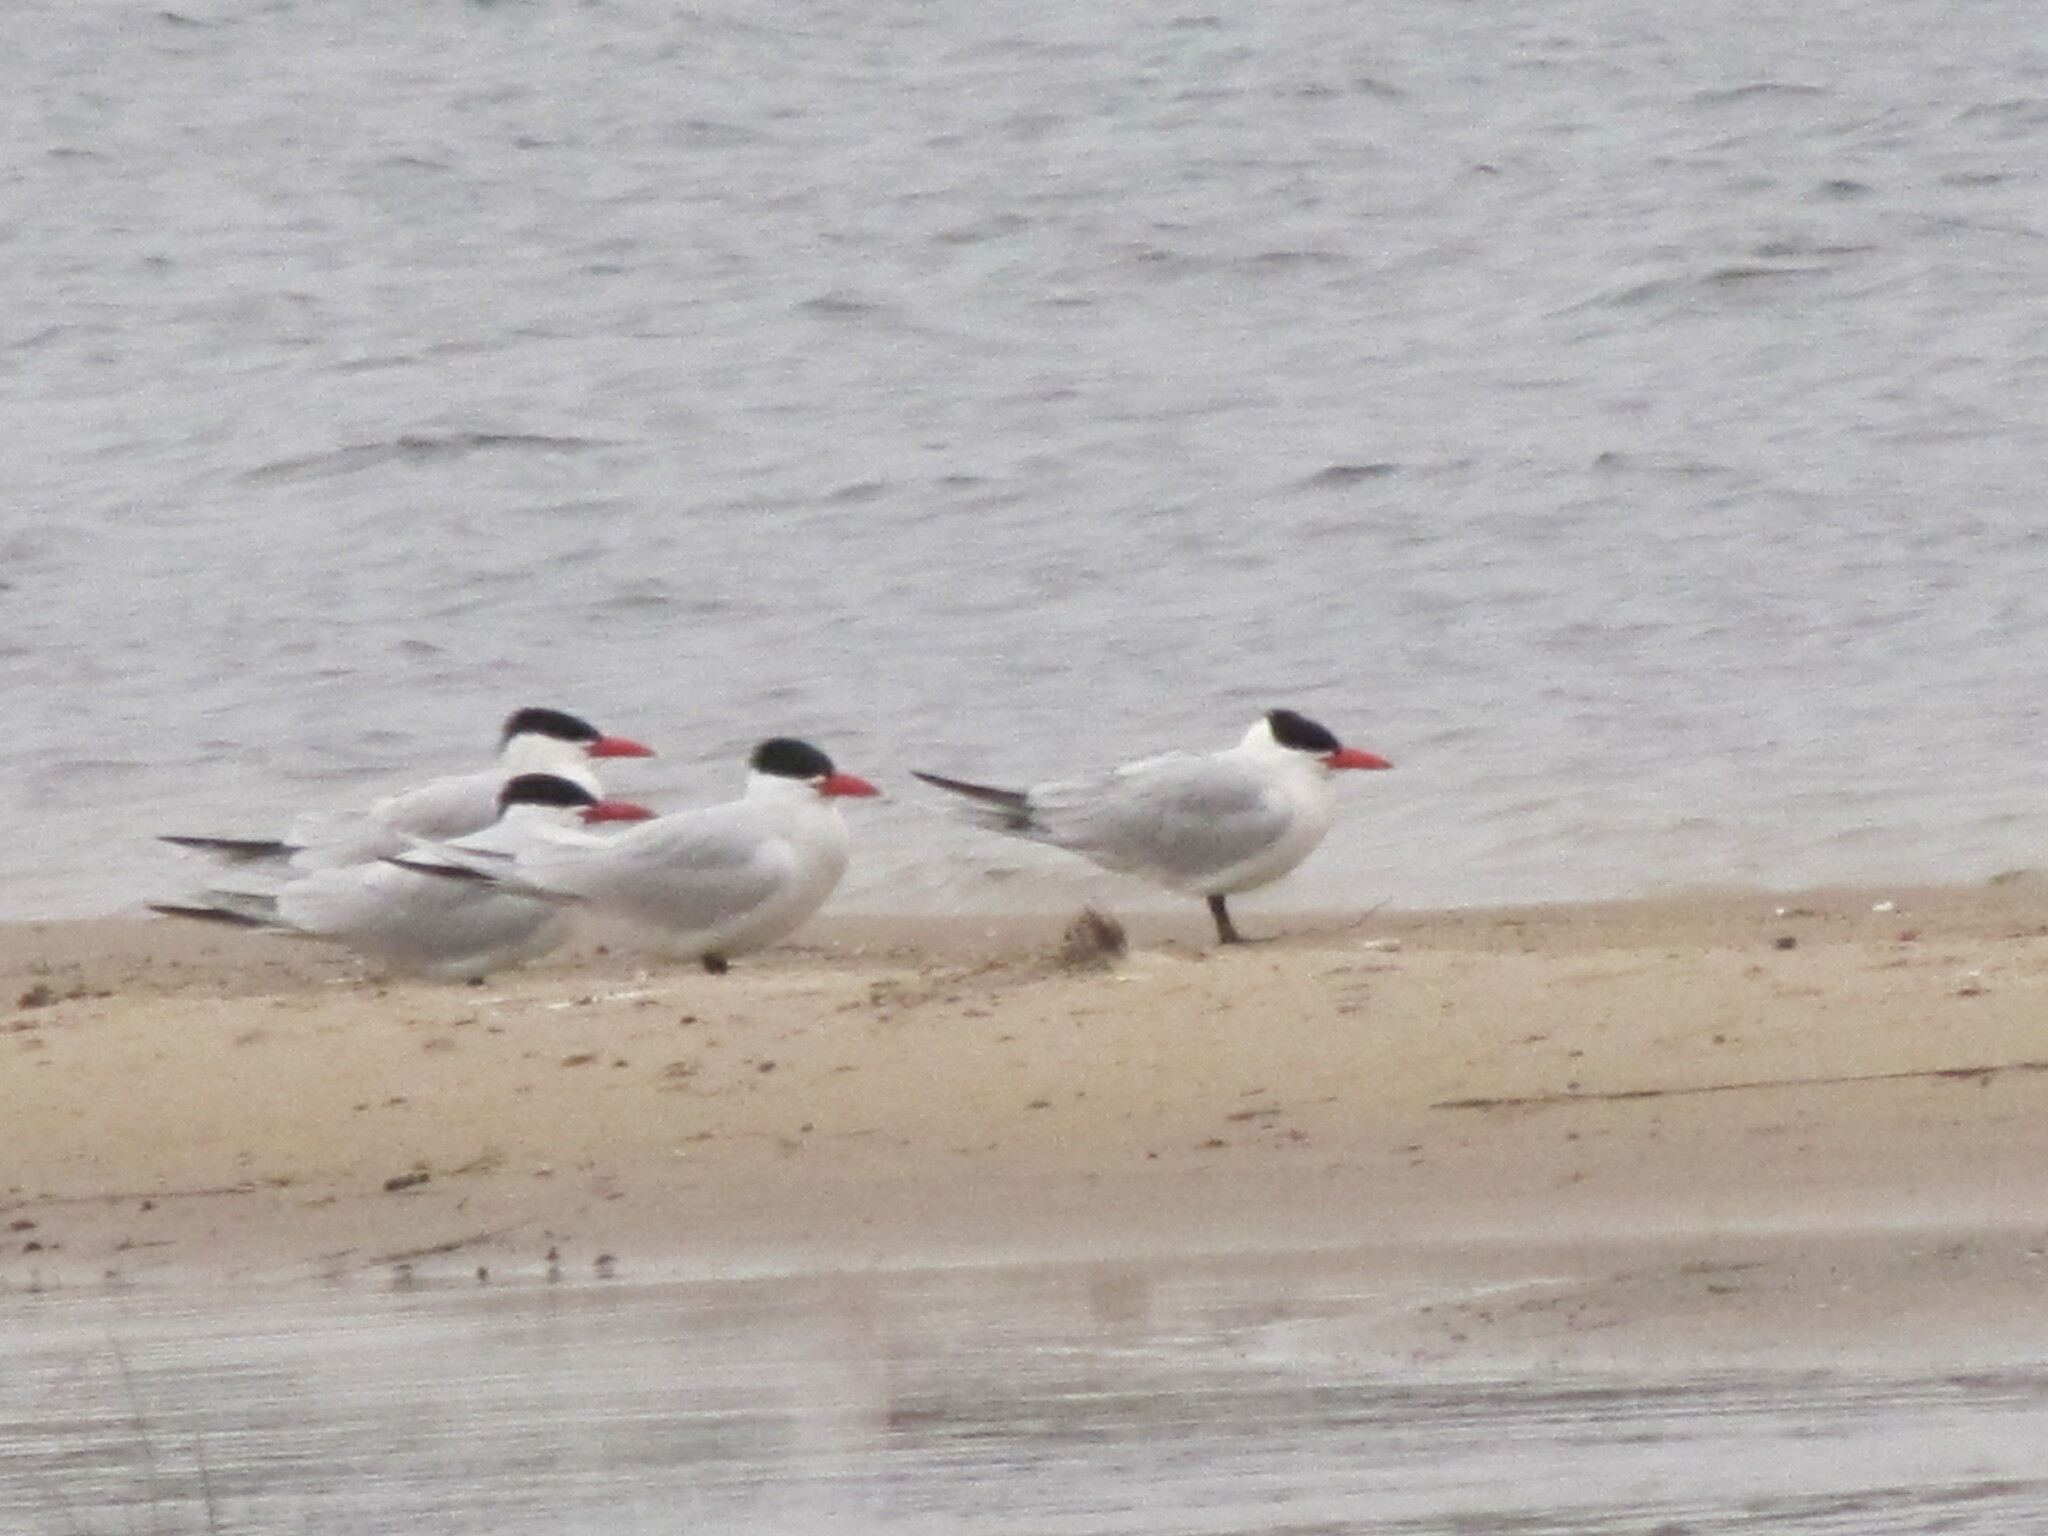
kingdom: Animalia
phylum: Chordata
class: Aves
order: Charadriiformes
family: Laridae
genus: Hydroprogne
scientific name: Hydroprogne caspia
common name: Caspian tern
